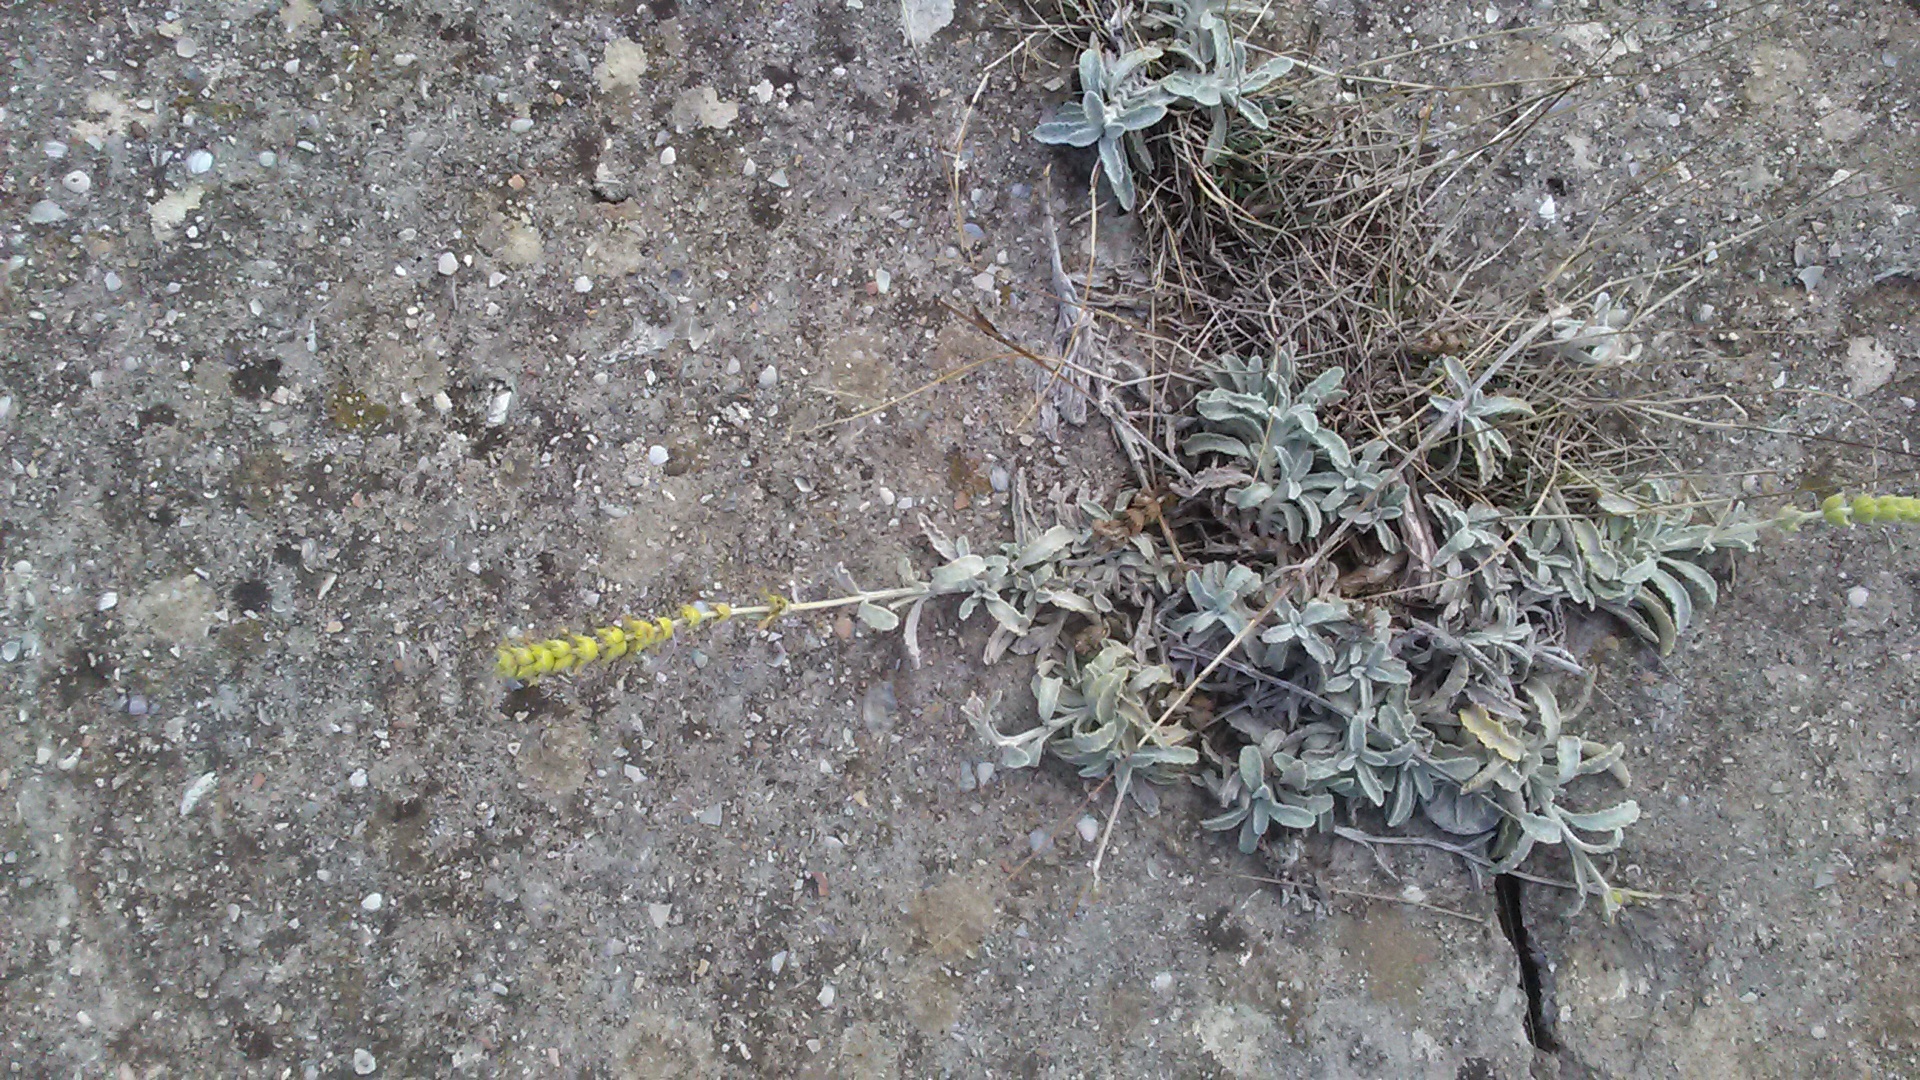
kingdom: Plantae
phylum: Tracheophyta
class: Magnoliopsida
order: Lamiales
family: Lamiaceae
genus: Sideritis
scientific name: Sideritis taurica
